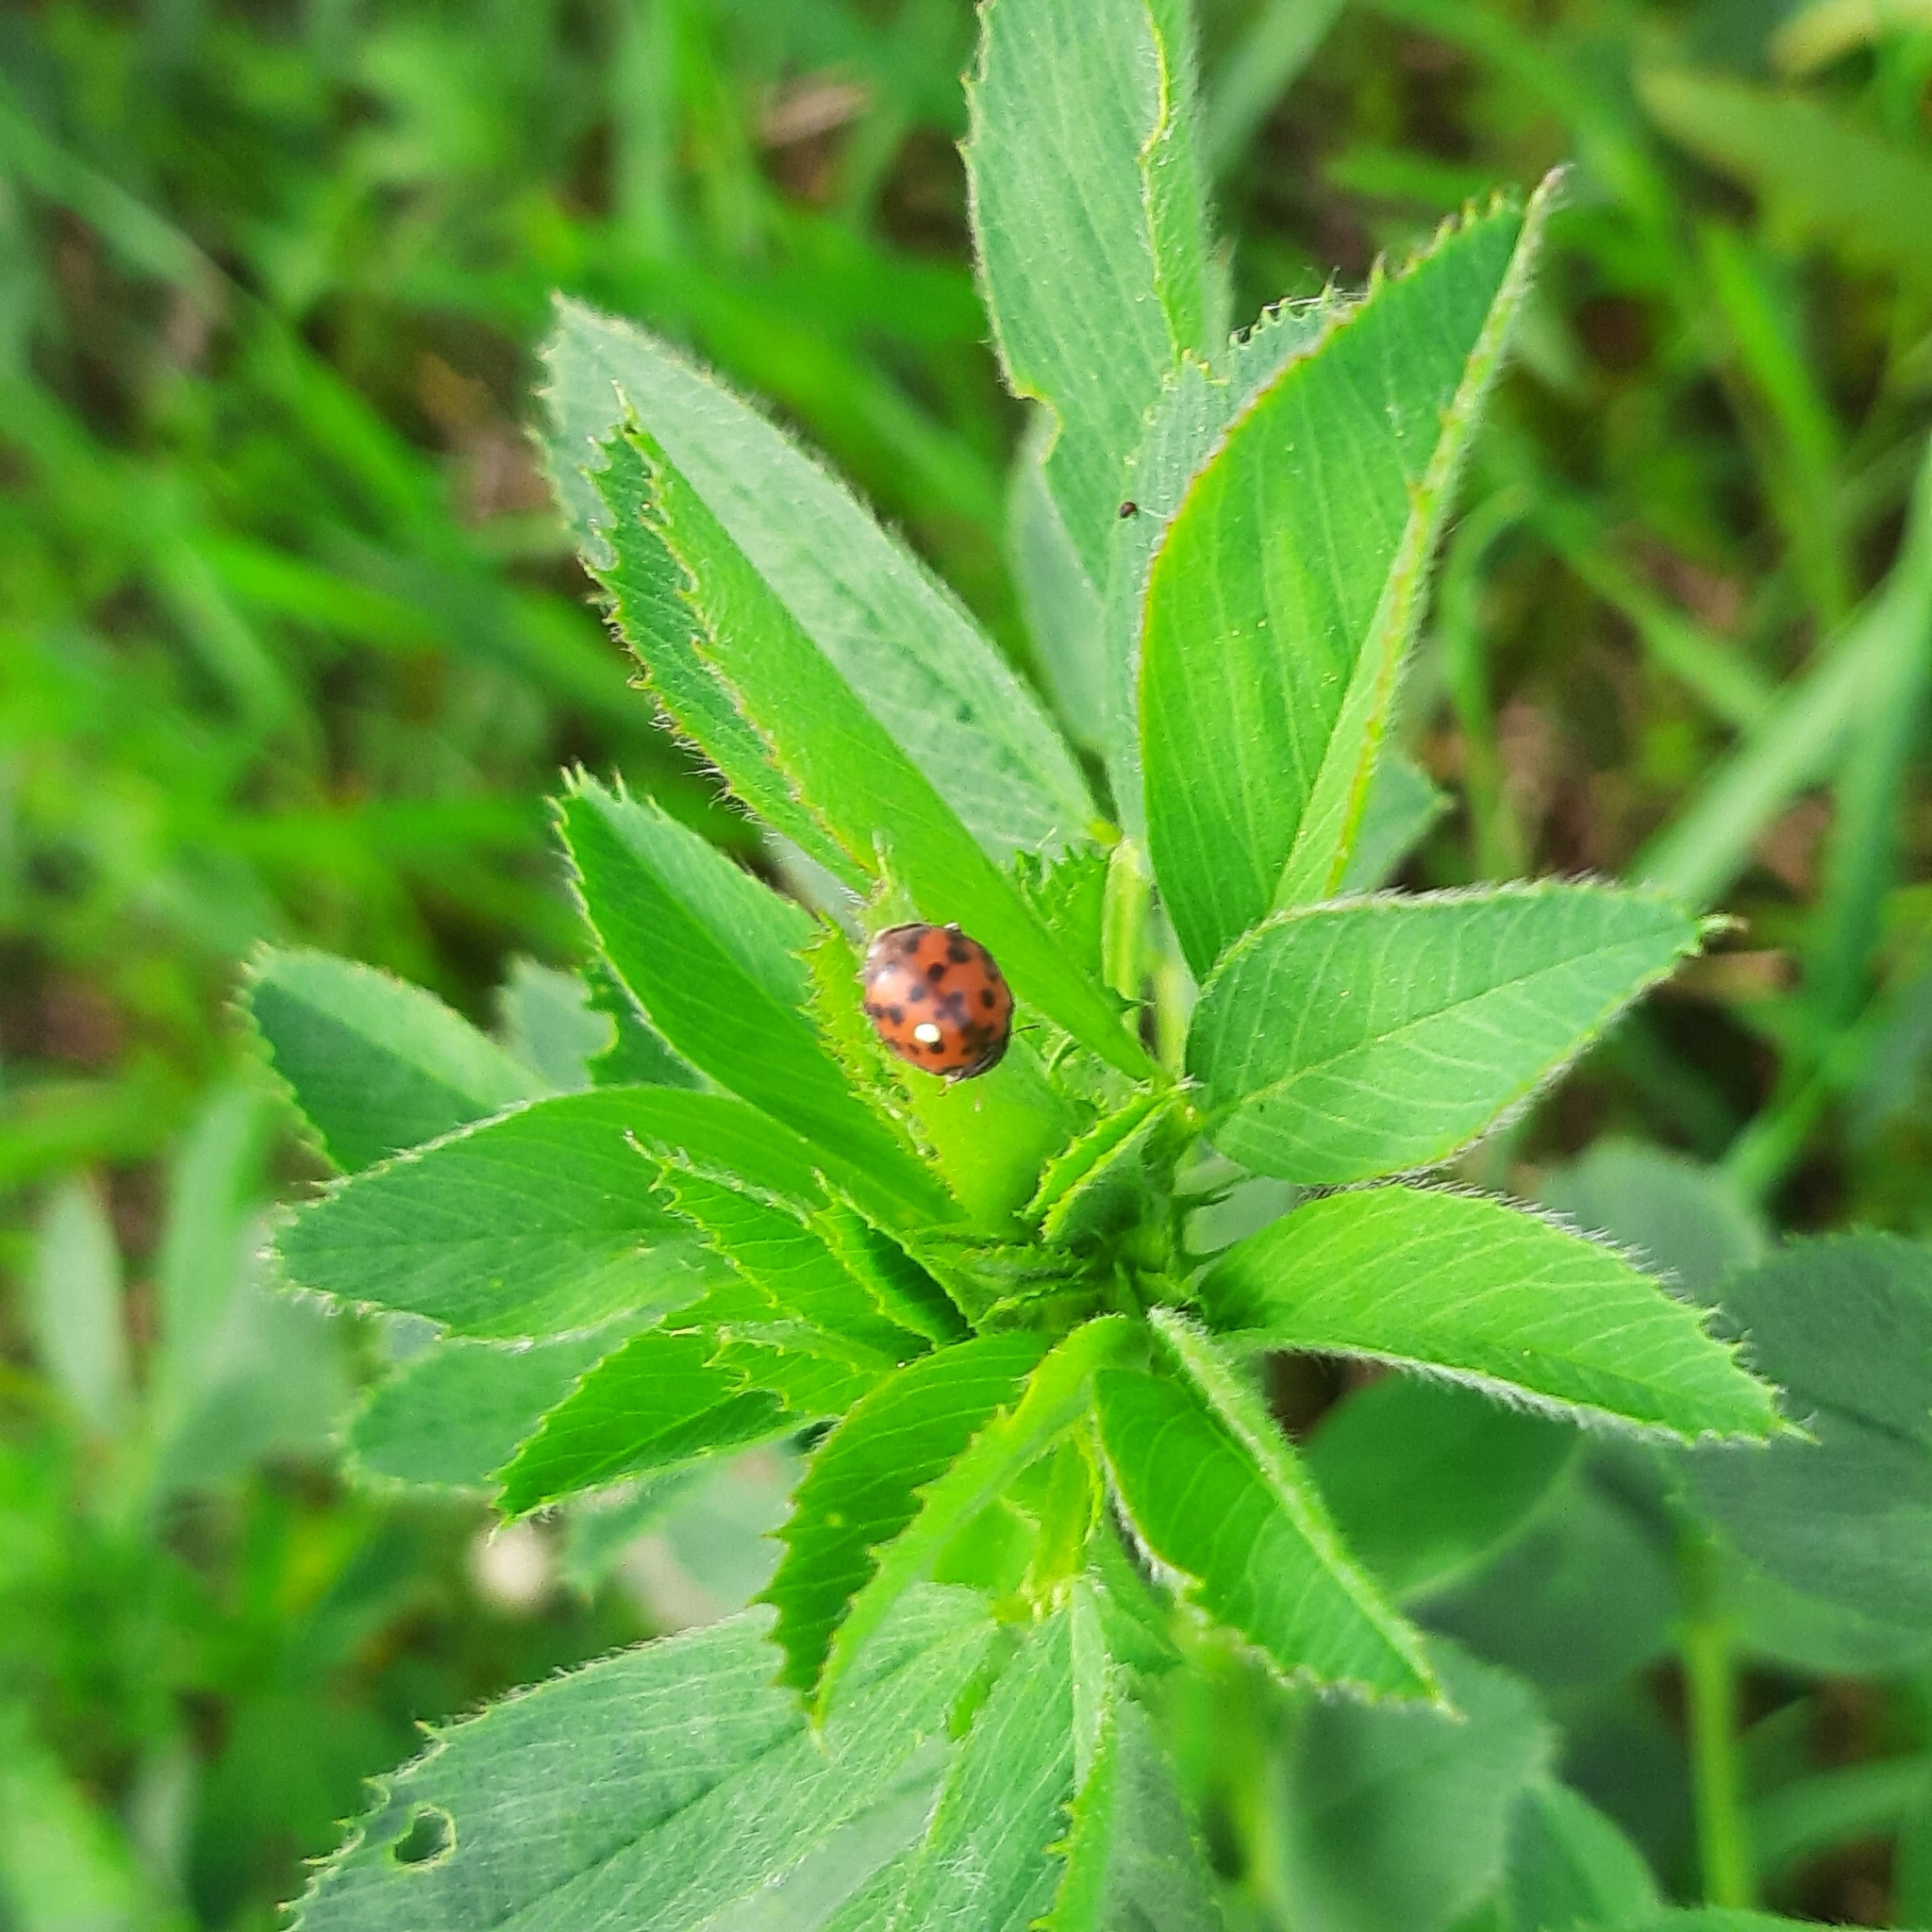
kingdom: Animalia
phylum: Arthropoda
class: Insecta
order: Coleoptera
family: Coccinellidae
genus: Subcoccinella
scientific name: Subcoccinella vigintiquatuorpunctata
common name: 24-spot ladybird
